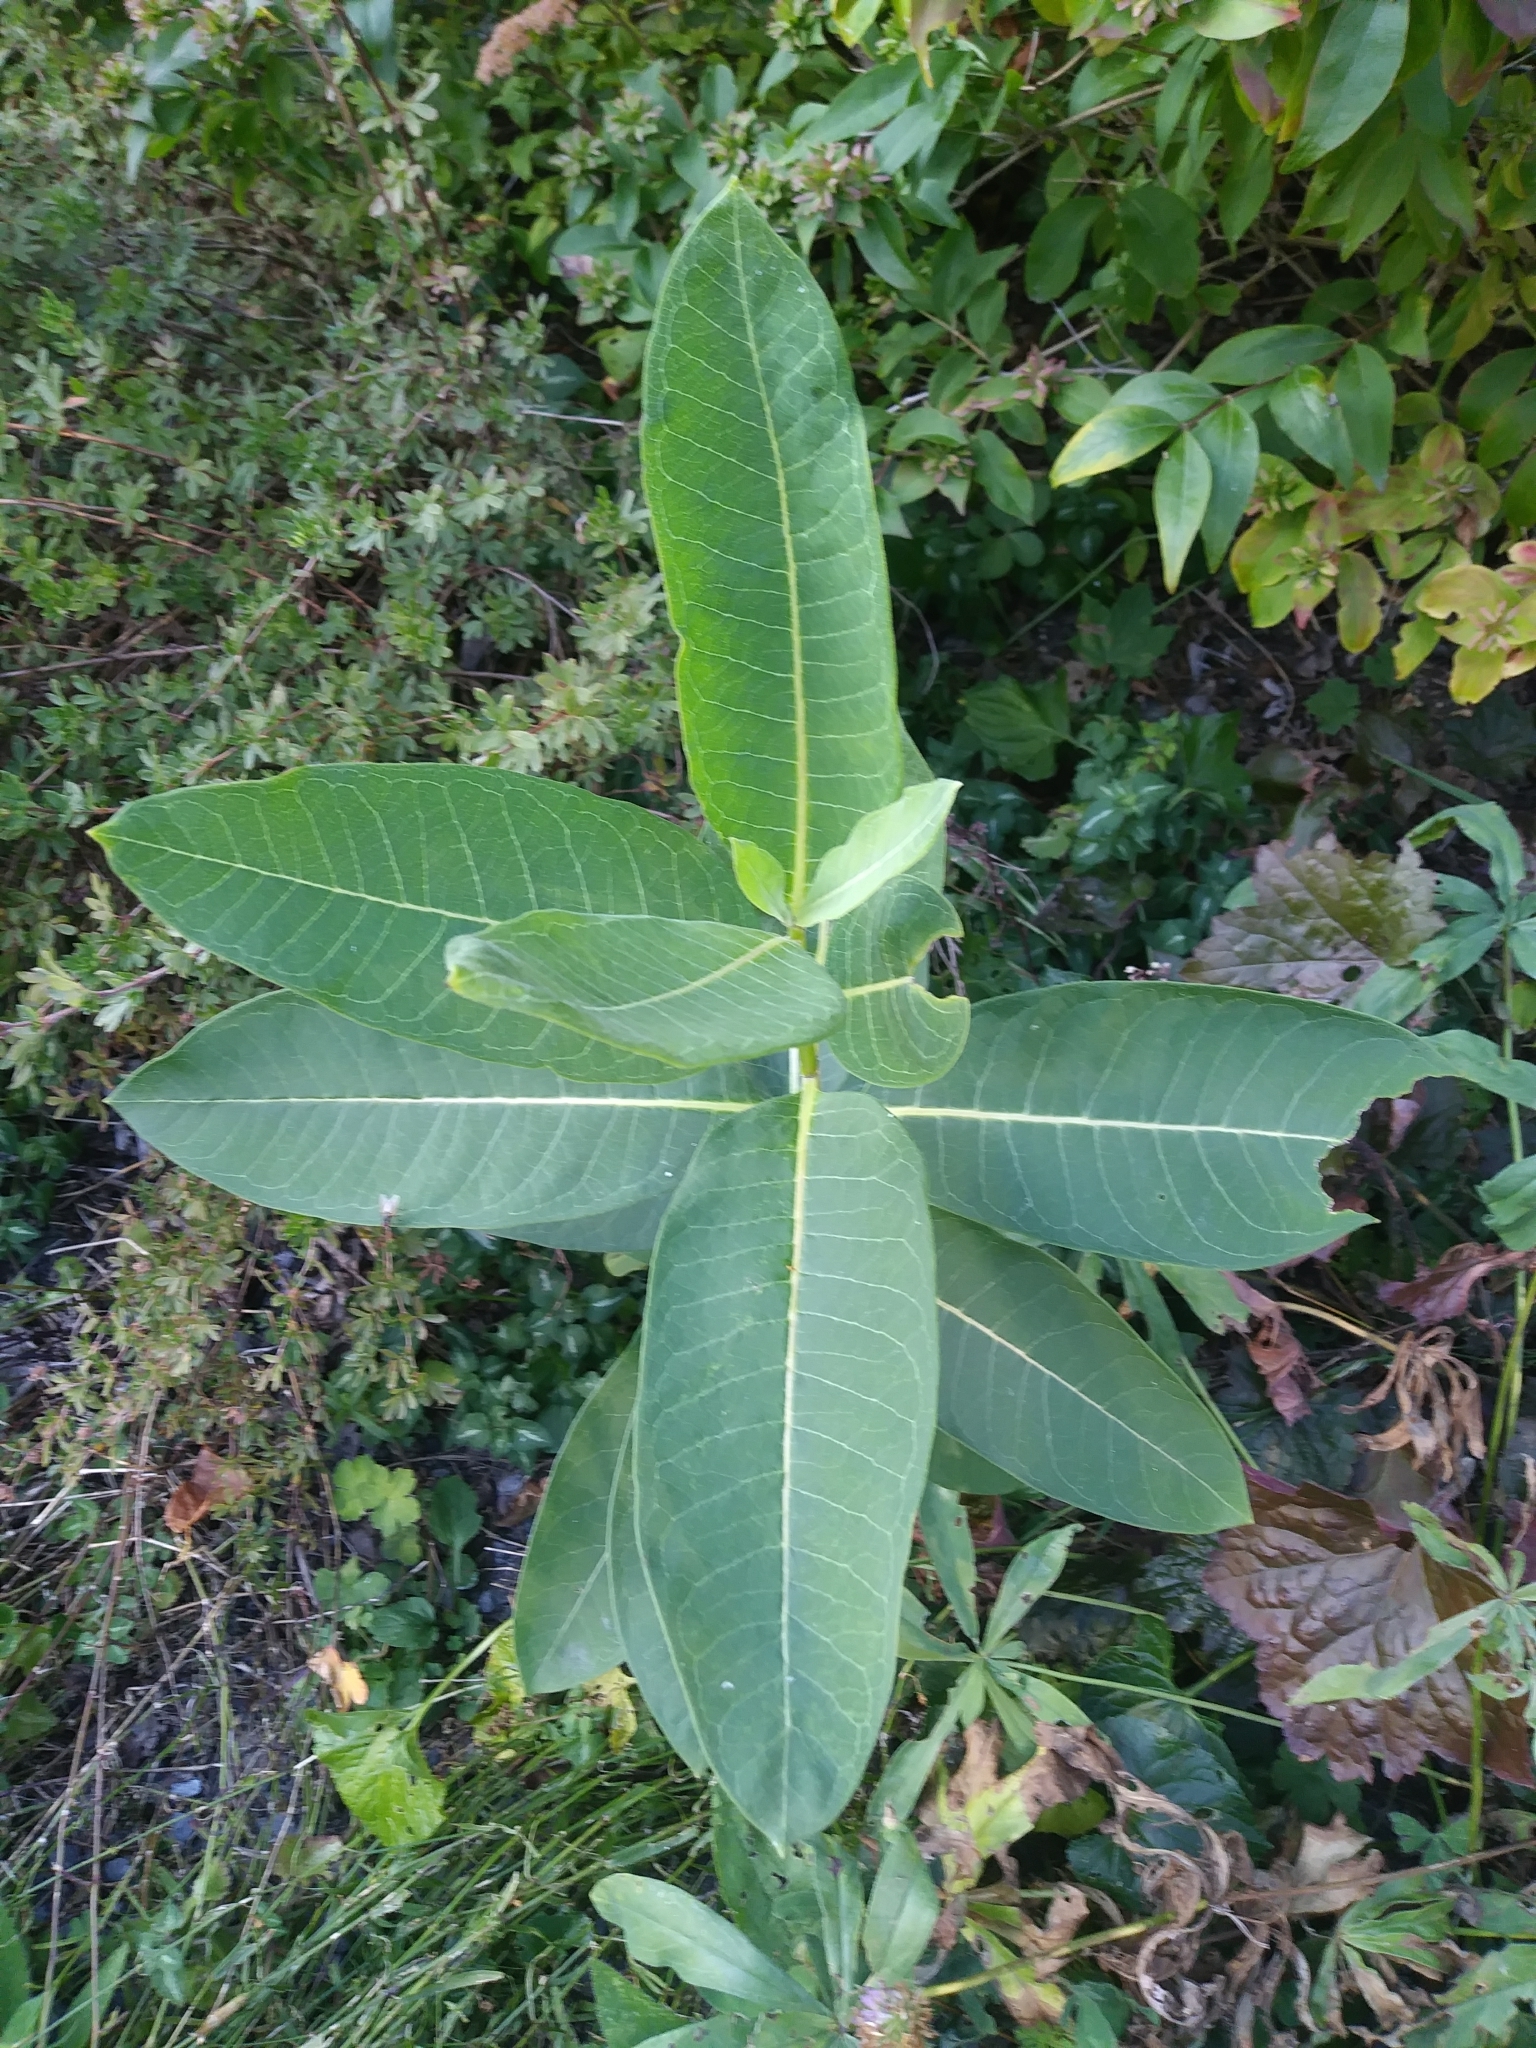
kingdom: Plantae
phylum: Tracheophyta
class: Magnoliopsida
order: Gentianales
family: Apocynaceae
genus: Asclepias
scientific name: Asclepias syriaca
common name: Common milkweed
